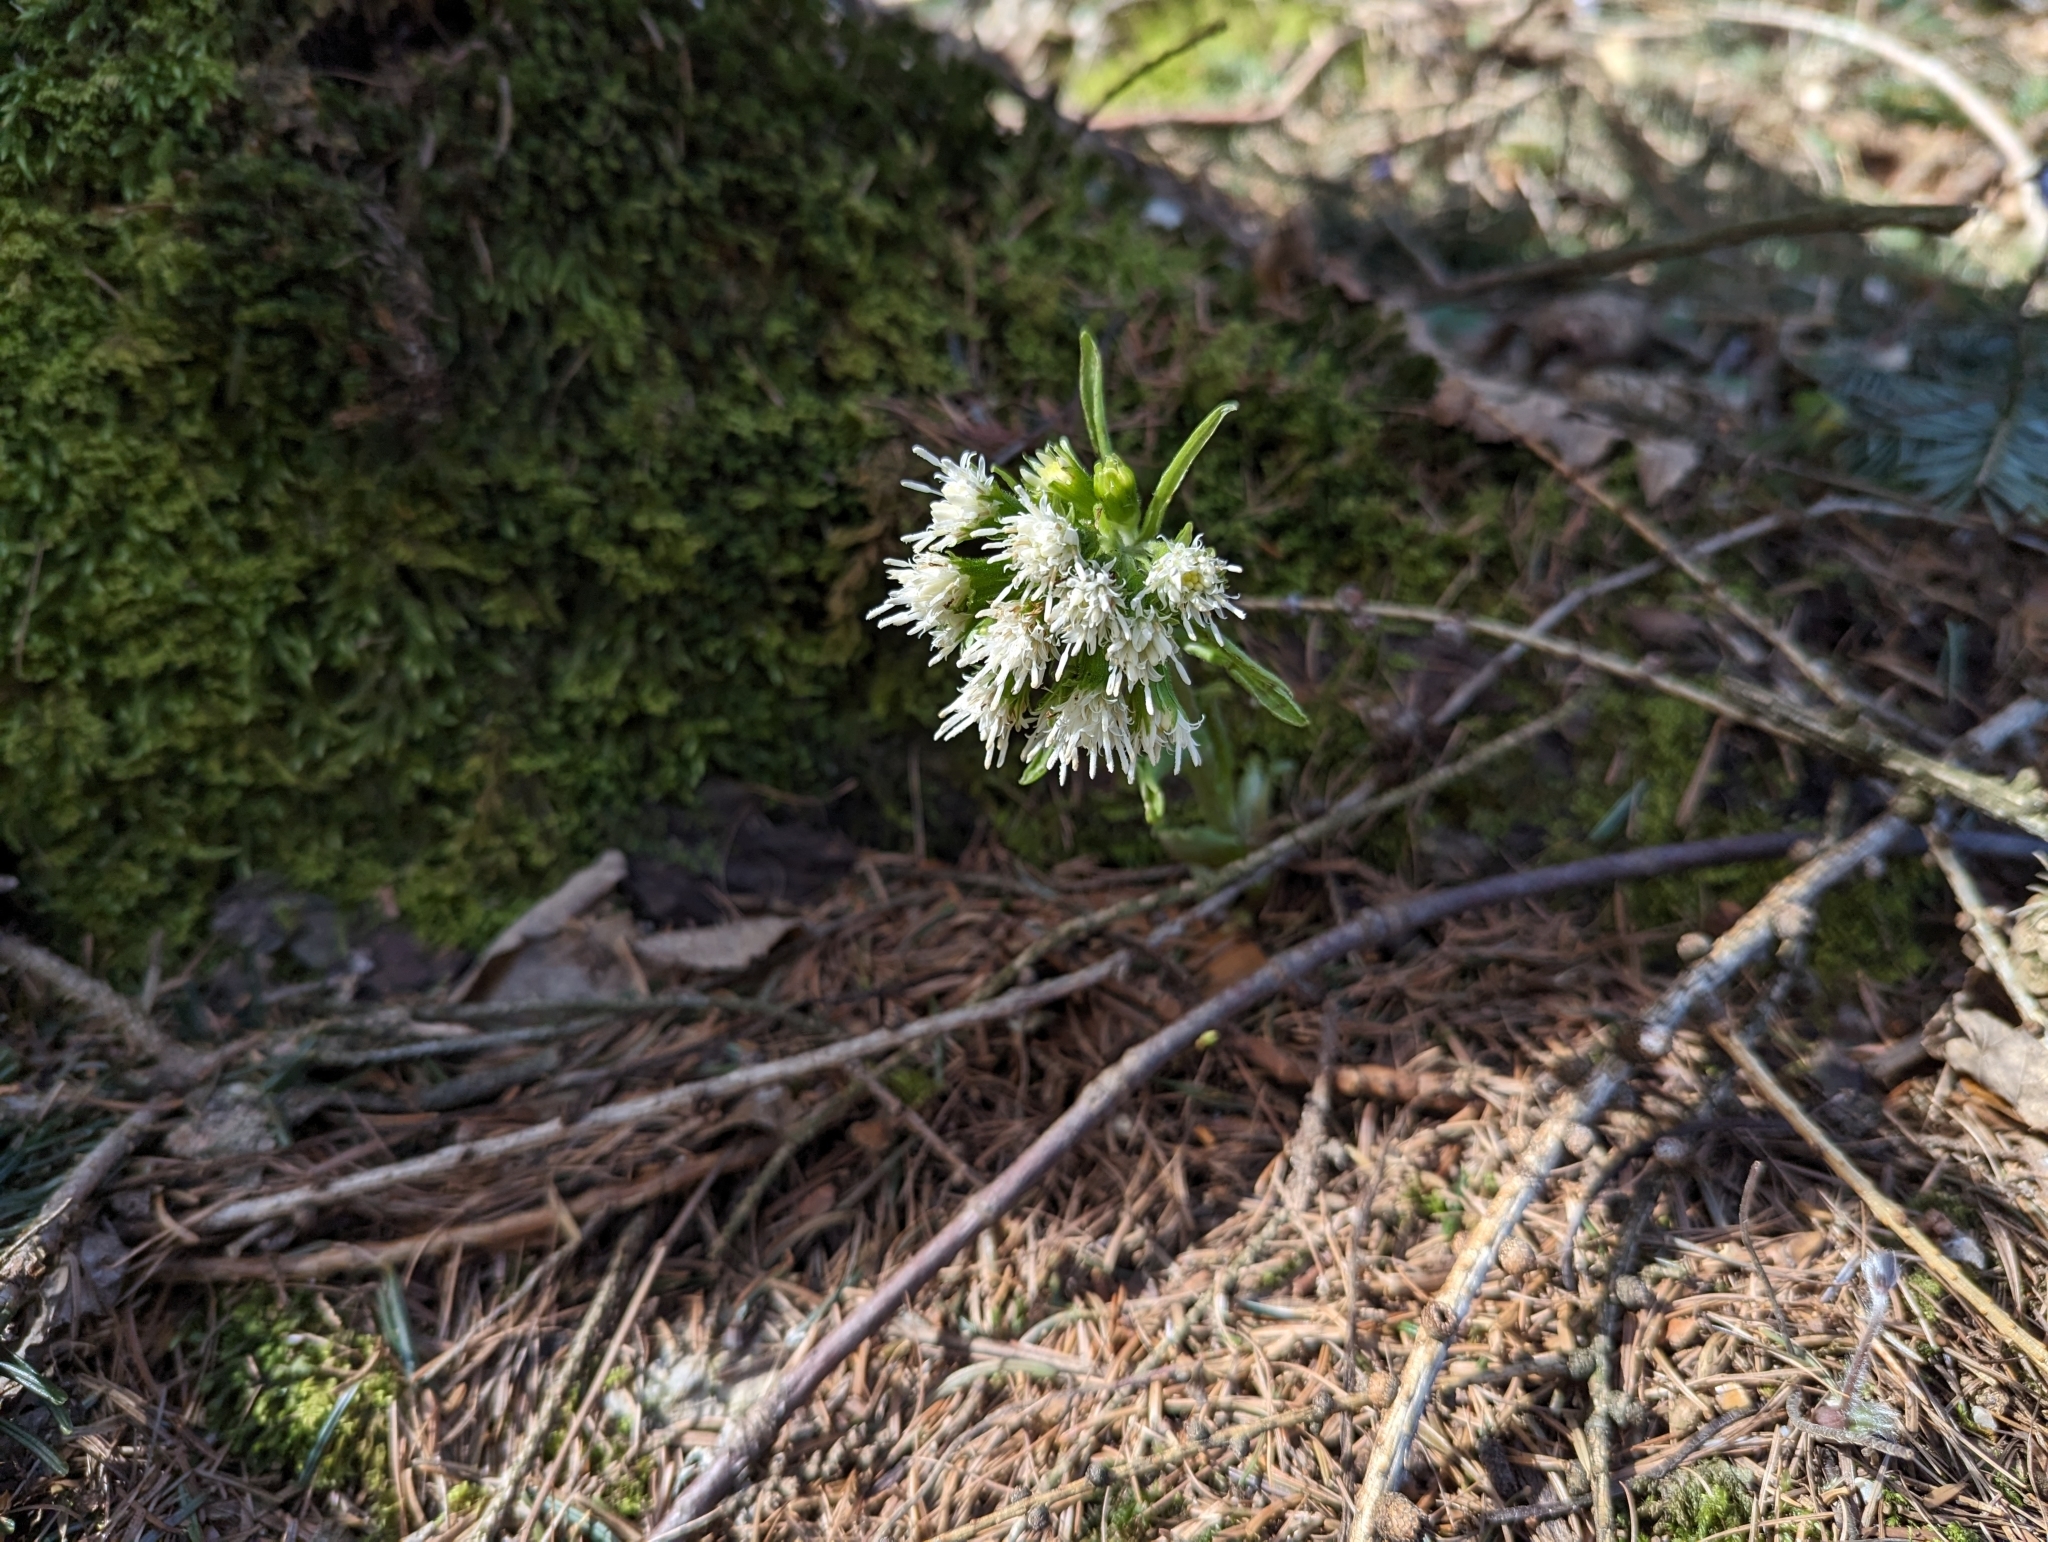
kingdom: Plantae
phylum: Tracheophyta
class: Magnoliopsida
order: Asterales
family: Asteraceae
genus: Petasites
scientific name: Petasites albus
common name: White butterbur
